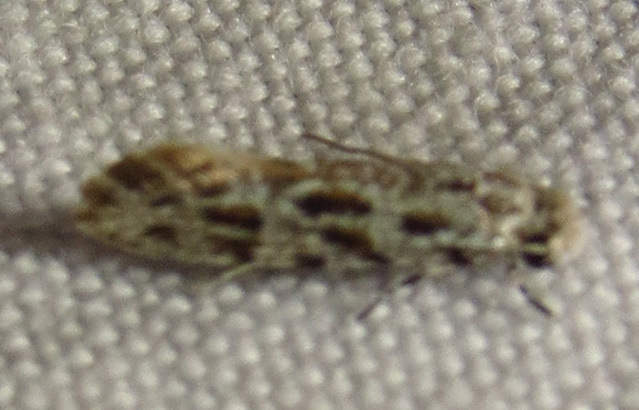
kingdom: Animalia
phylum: Arthropoda
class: Insecta
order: Lepidoptera
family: Meessiidae
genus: Diachorisia
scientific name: Diachorisia velatella
